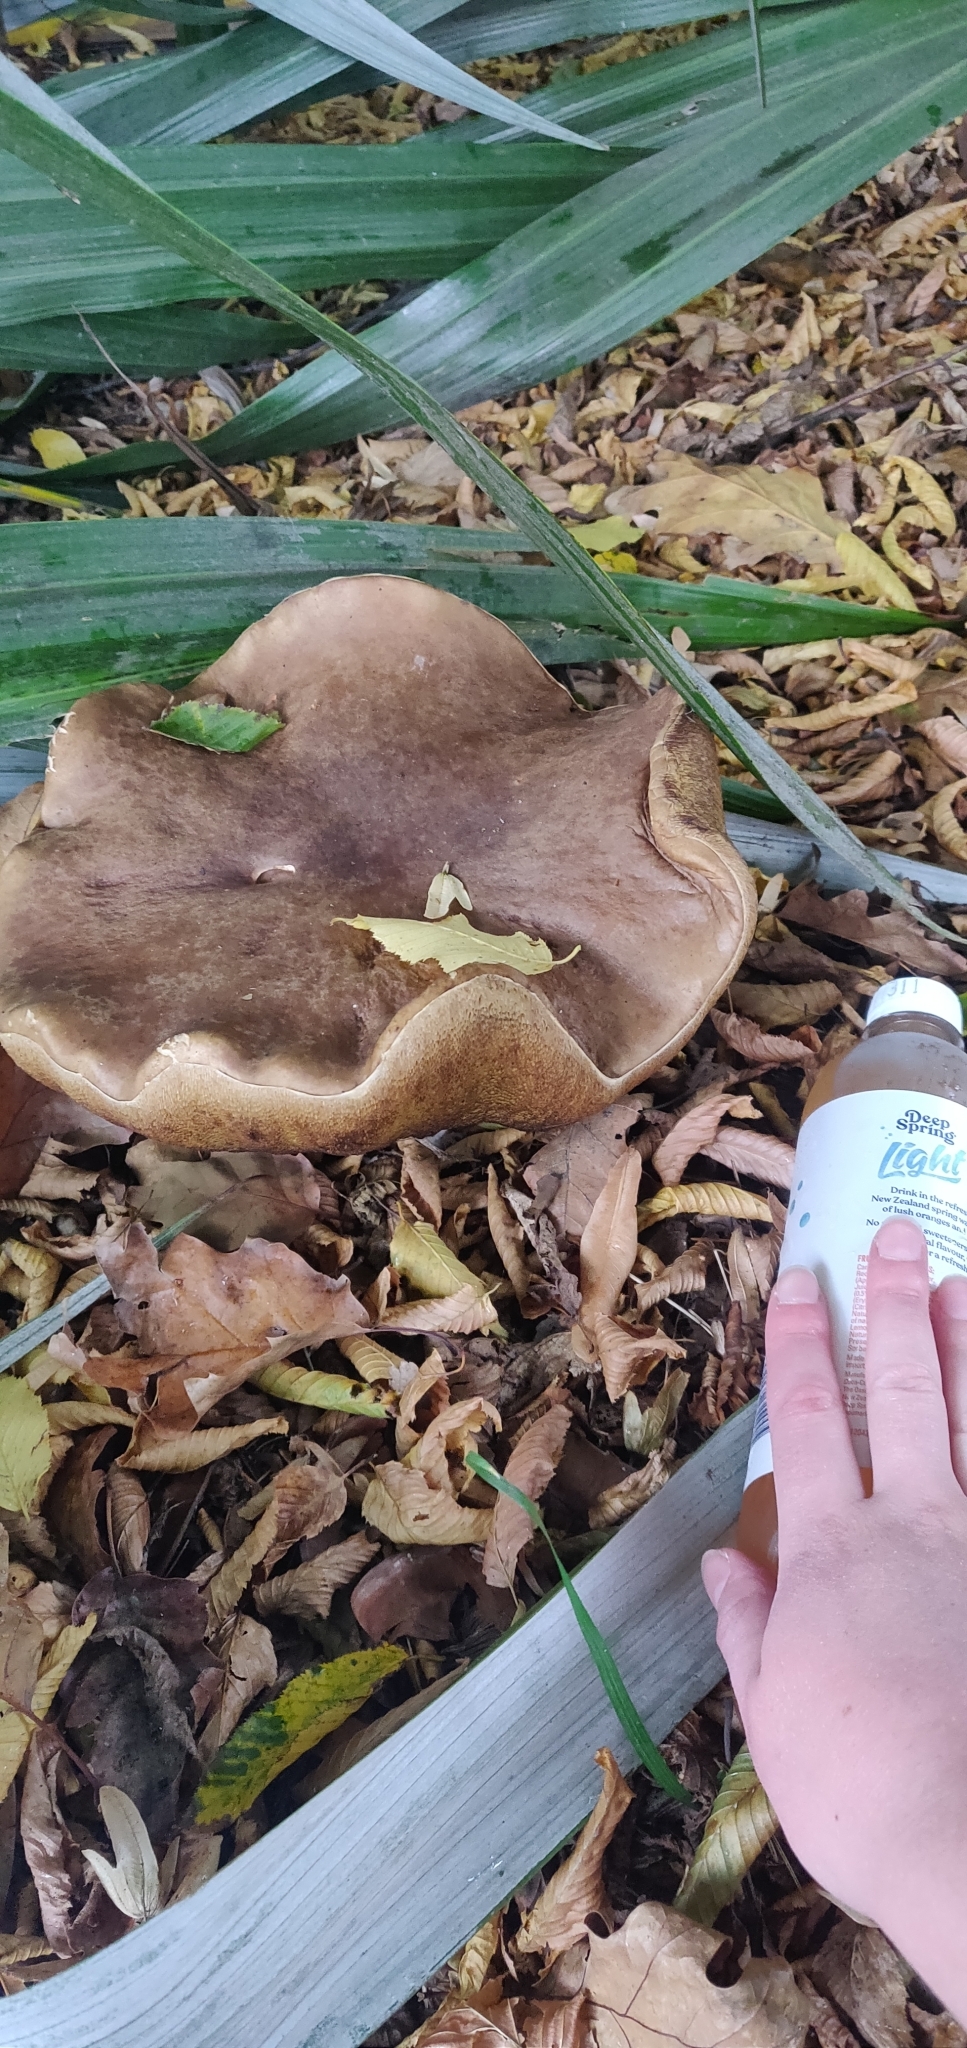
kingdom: Fungi
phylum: Basidiomycota
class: Agaricomycetes
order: Boletales
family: Boletaceae
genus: Boletus
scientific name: Boletus edulis
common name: Cep
